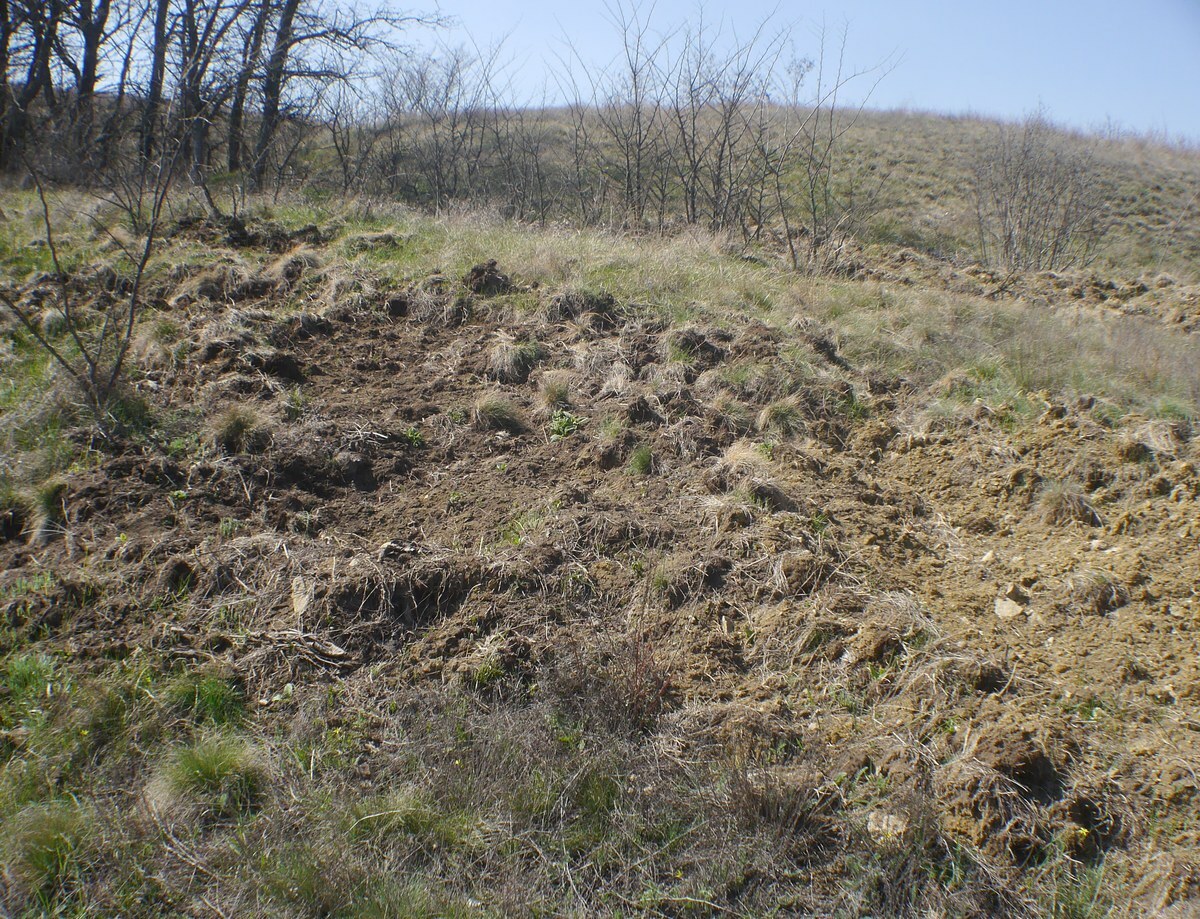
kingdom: Animalia
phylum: Chordata
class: Mammalia
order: Artiodactyla
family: Suidae
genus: Sus
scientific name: Sus scrofa
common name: Wild boar
